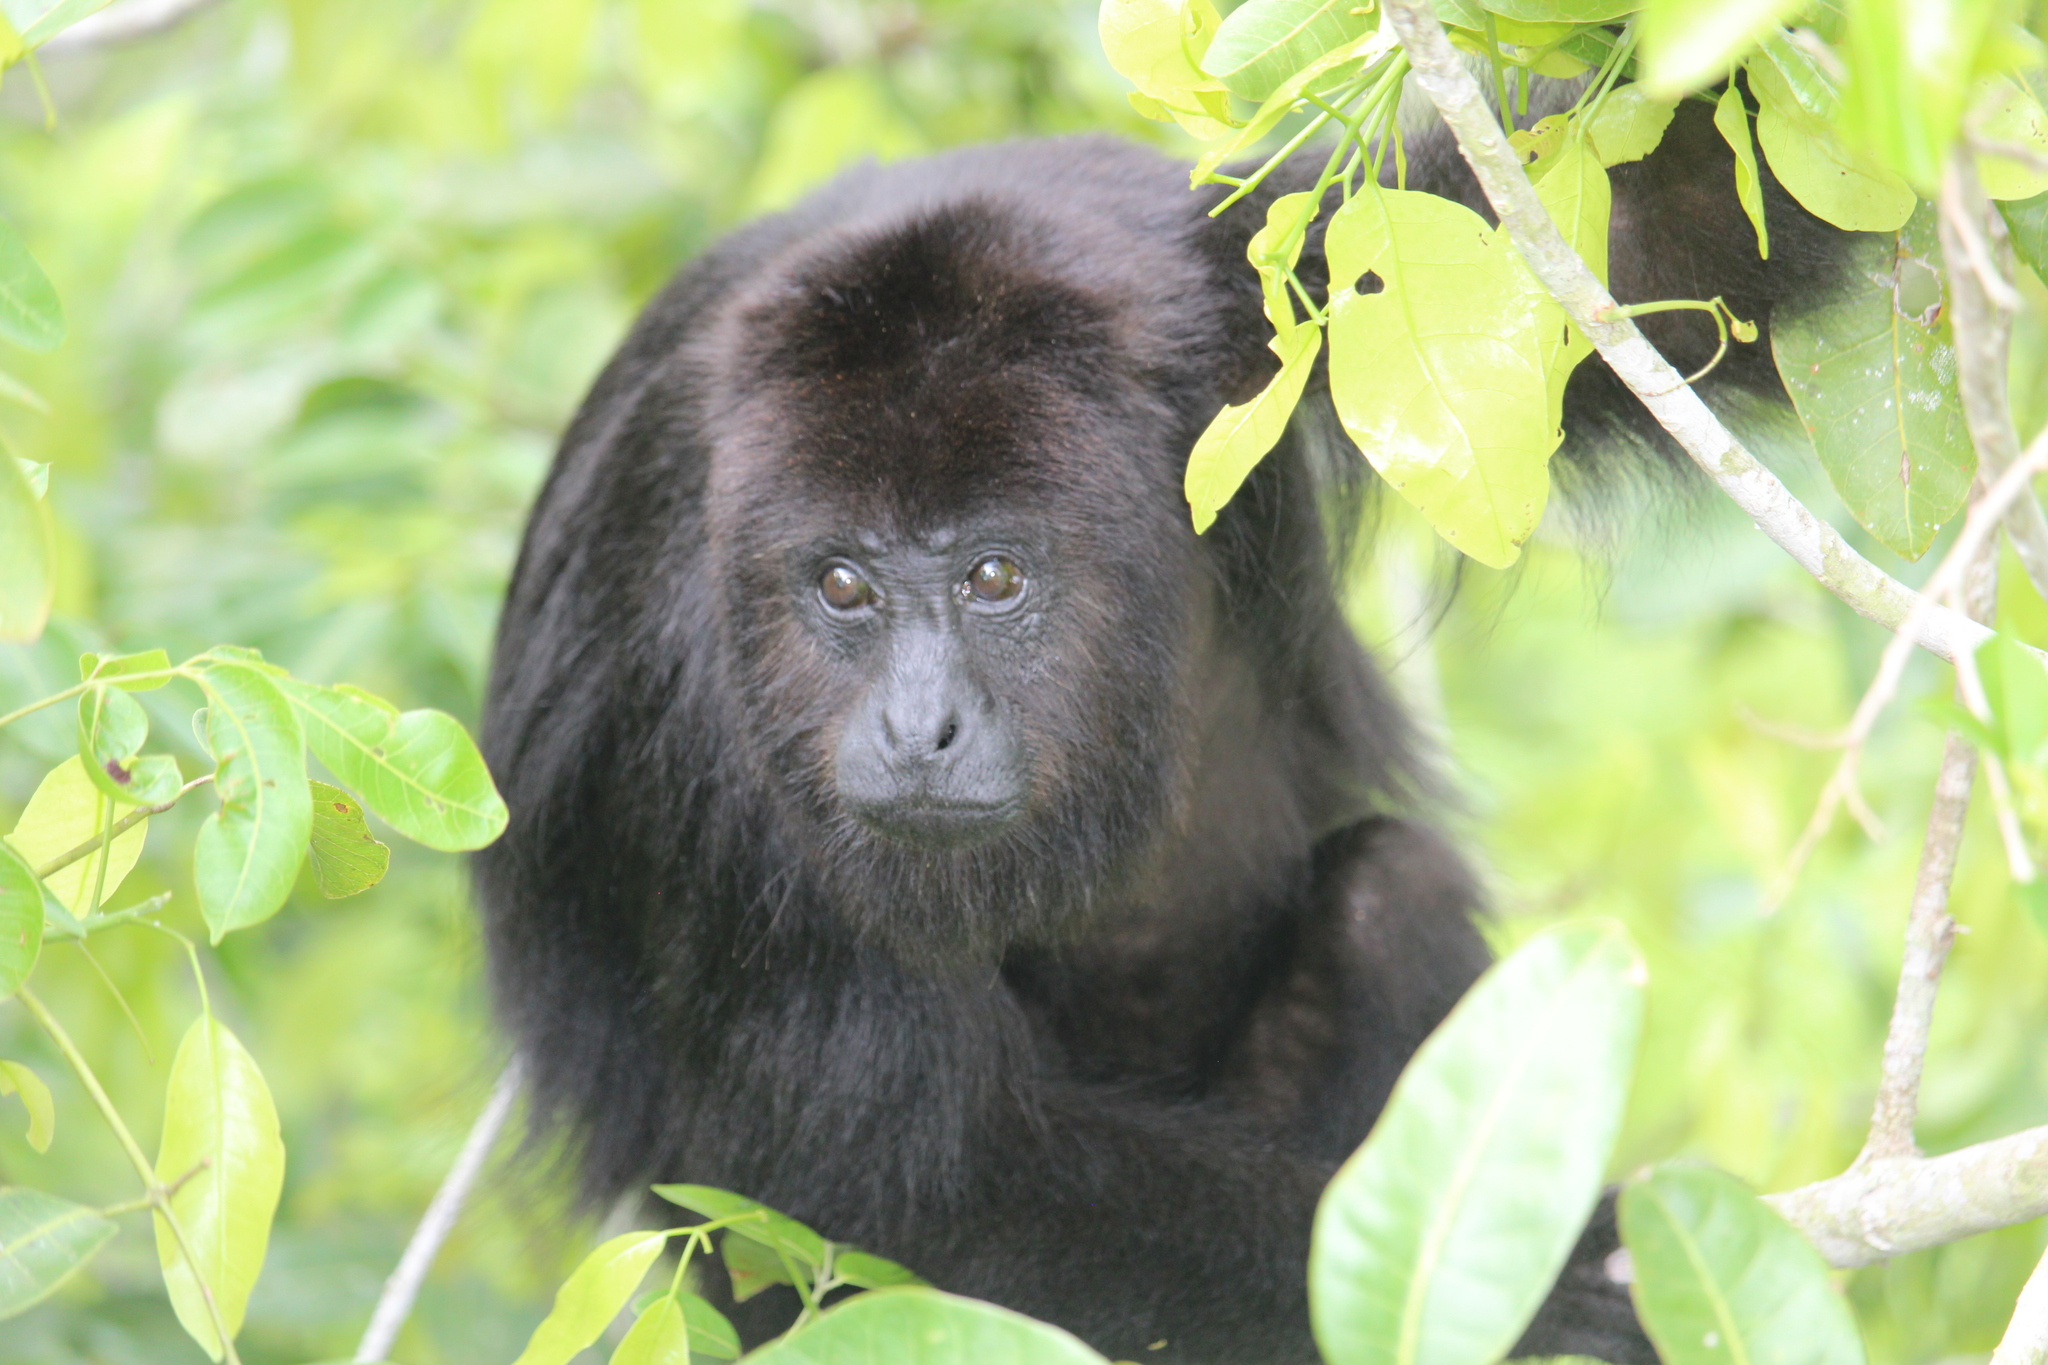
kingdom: Animalia
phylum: Chordata
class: Mammalia
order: Primates
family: Atelidae
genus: Alouatta
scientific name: Alouatta pigra
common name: Guatemalan black howler
